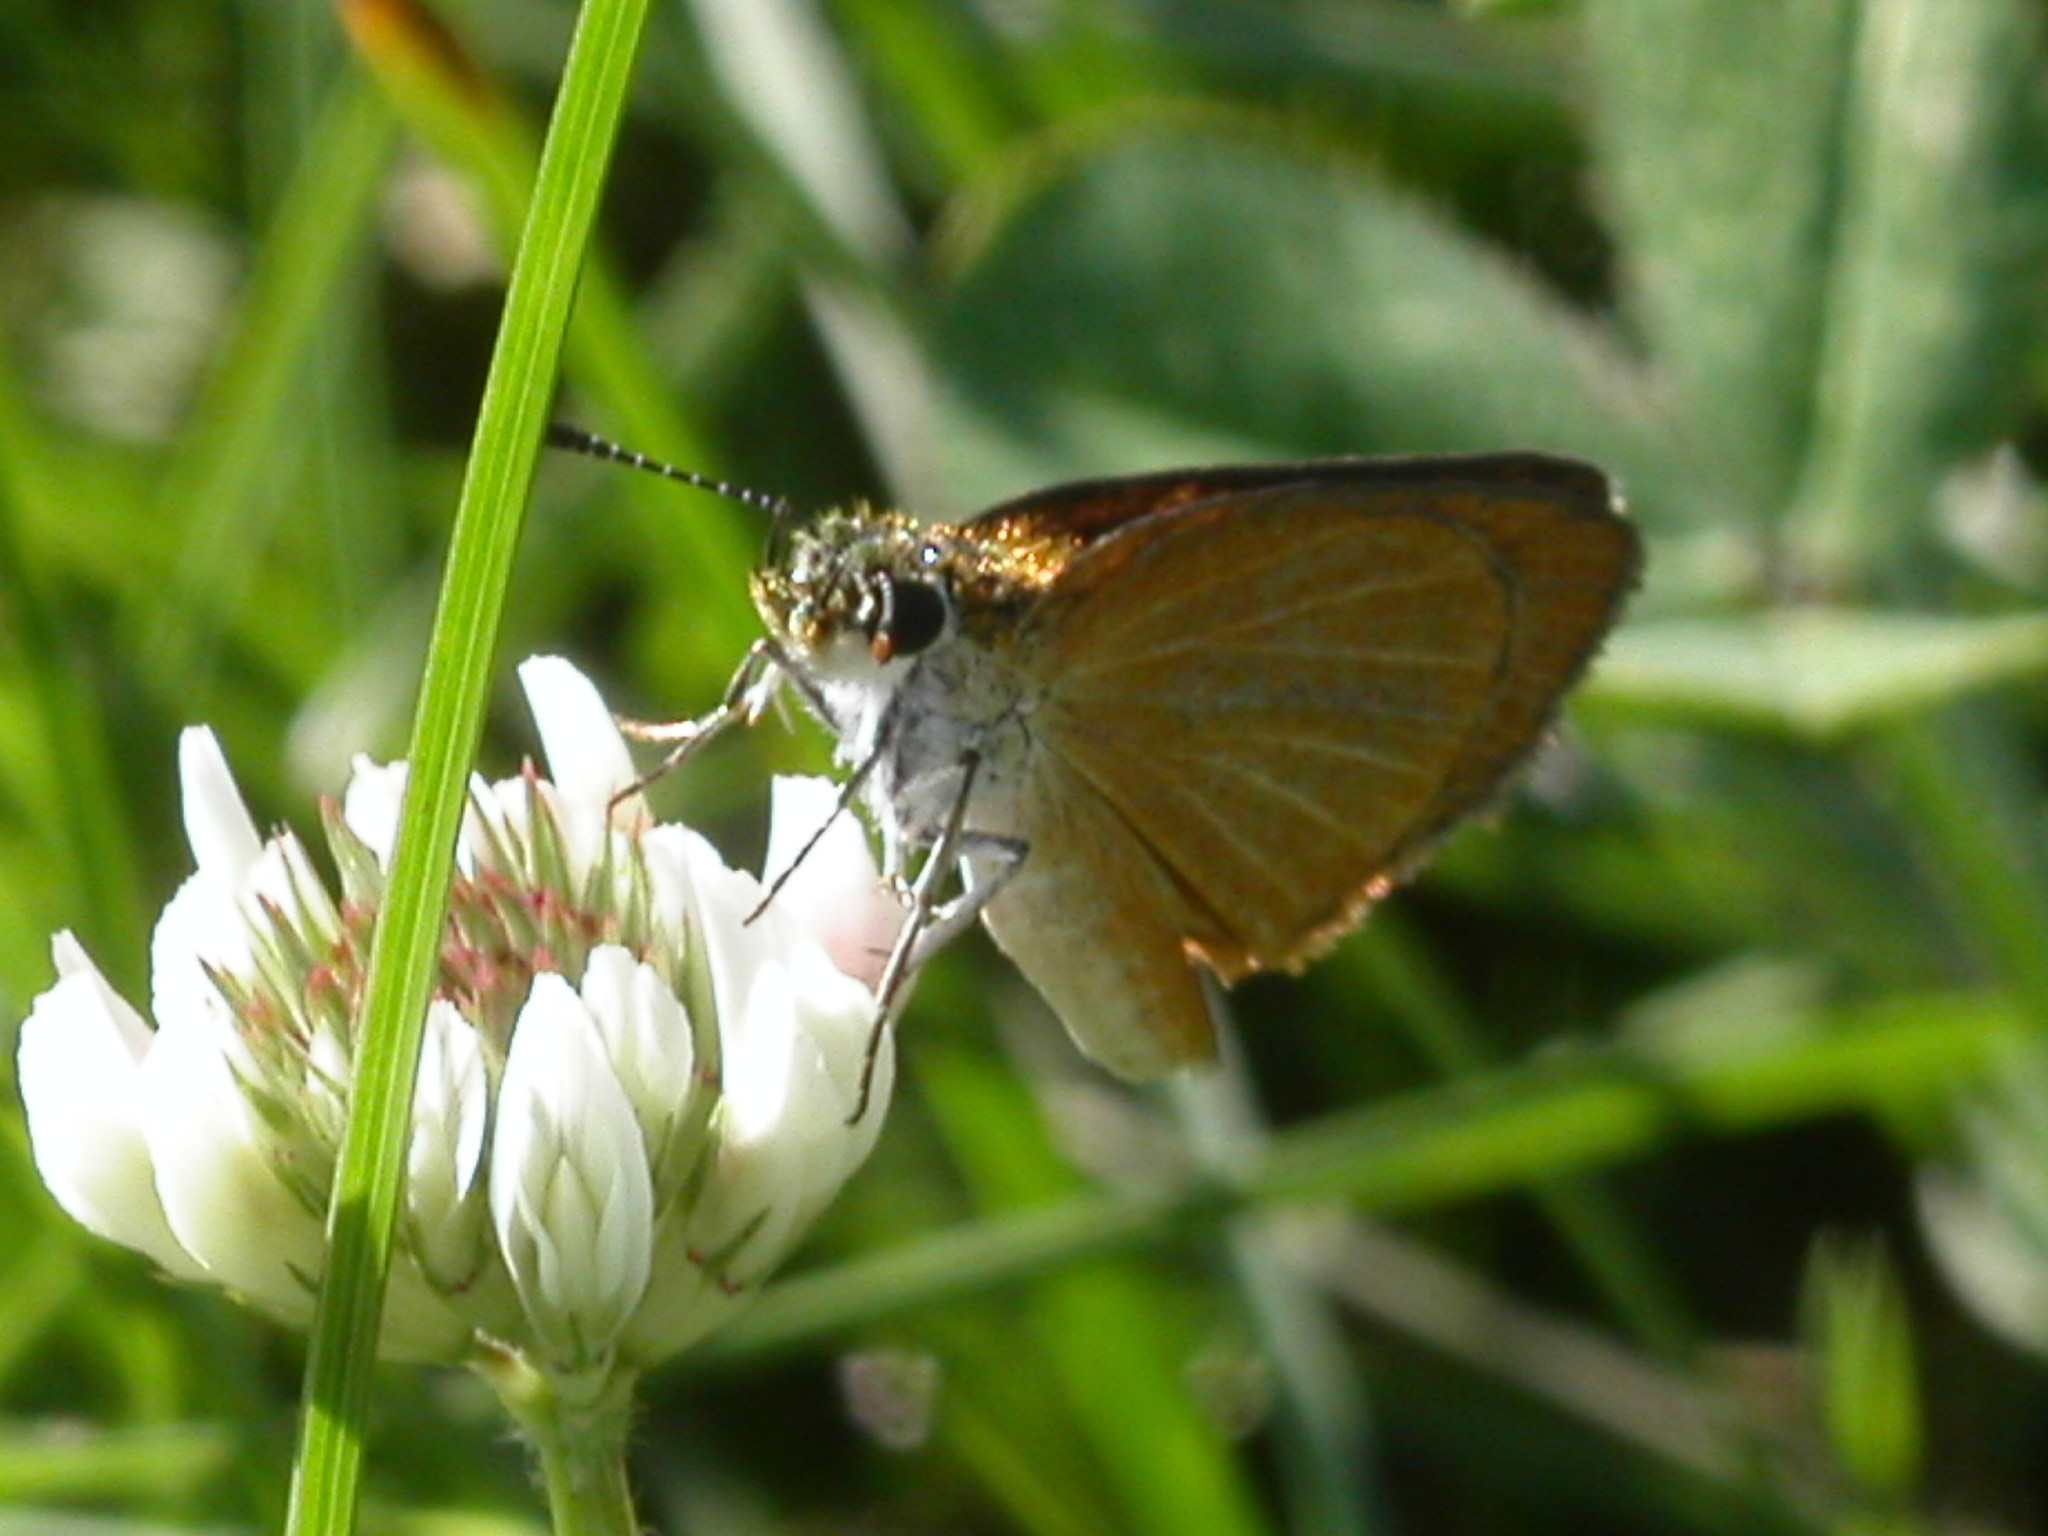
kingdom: Animalia
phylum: Arthropoda
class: Insecta
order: Lepidoptera
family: Hesperiidae
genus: Ancyloxypha
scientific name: Ancyloxypha numitor
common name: Least skipper
